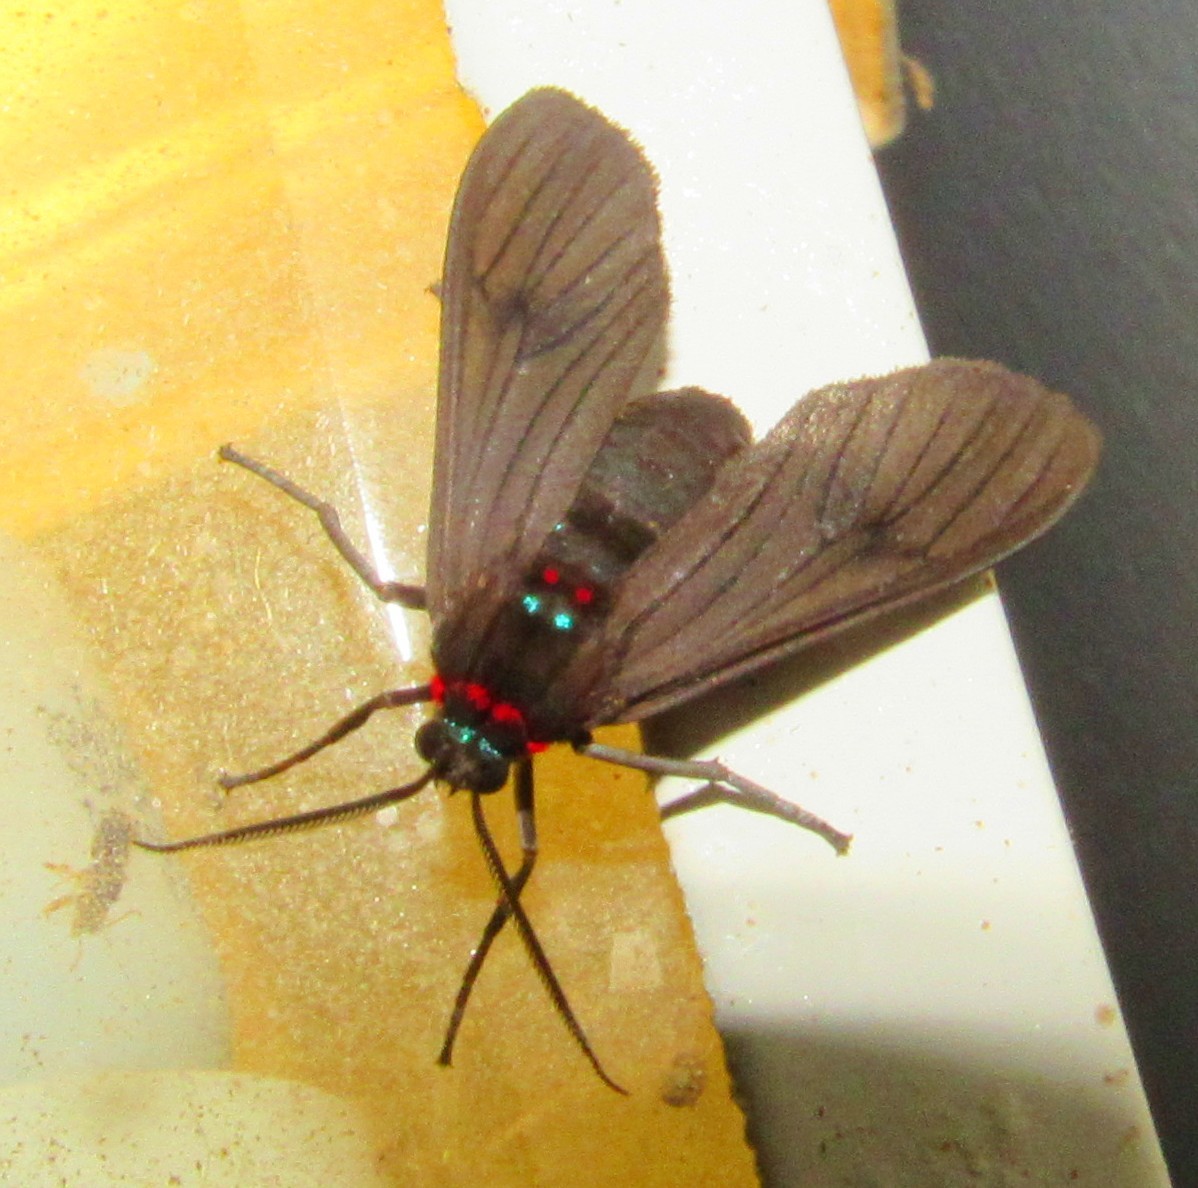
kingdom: Animalia
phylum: Arthropoda
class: Insecta
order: Lepidoptera
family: Erebidae
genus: Saurita
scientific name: Saurita cassandra
